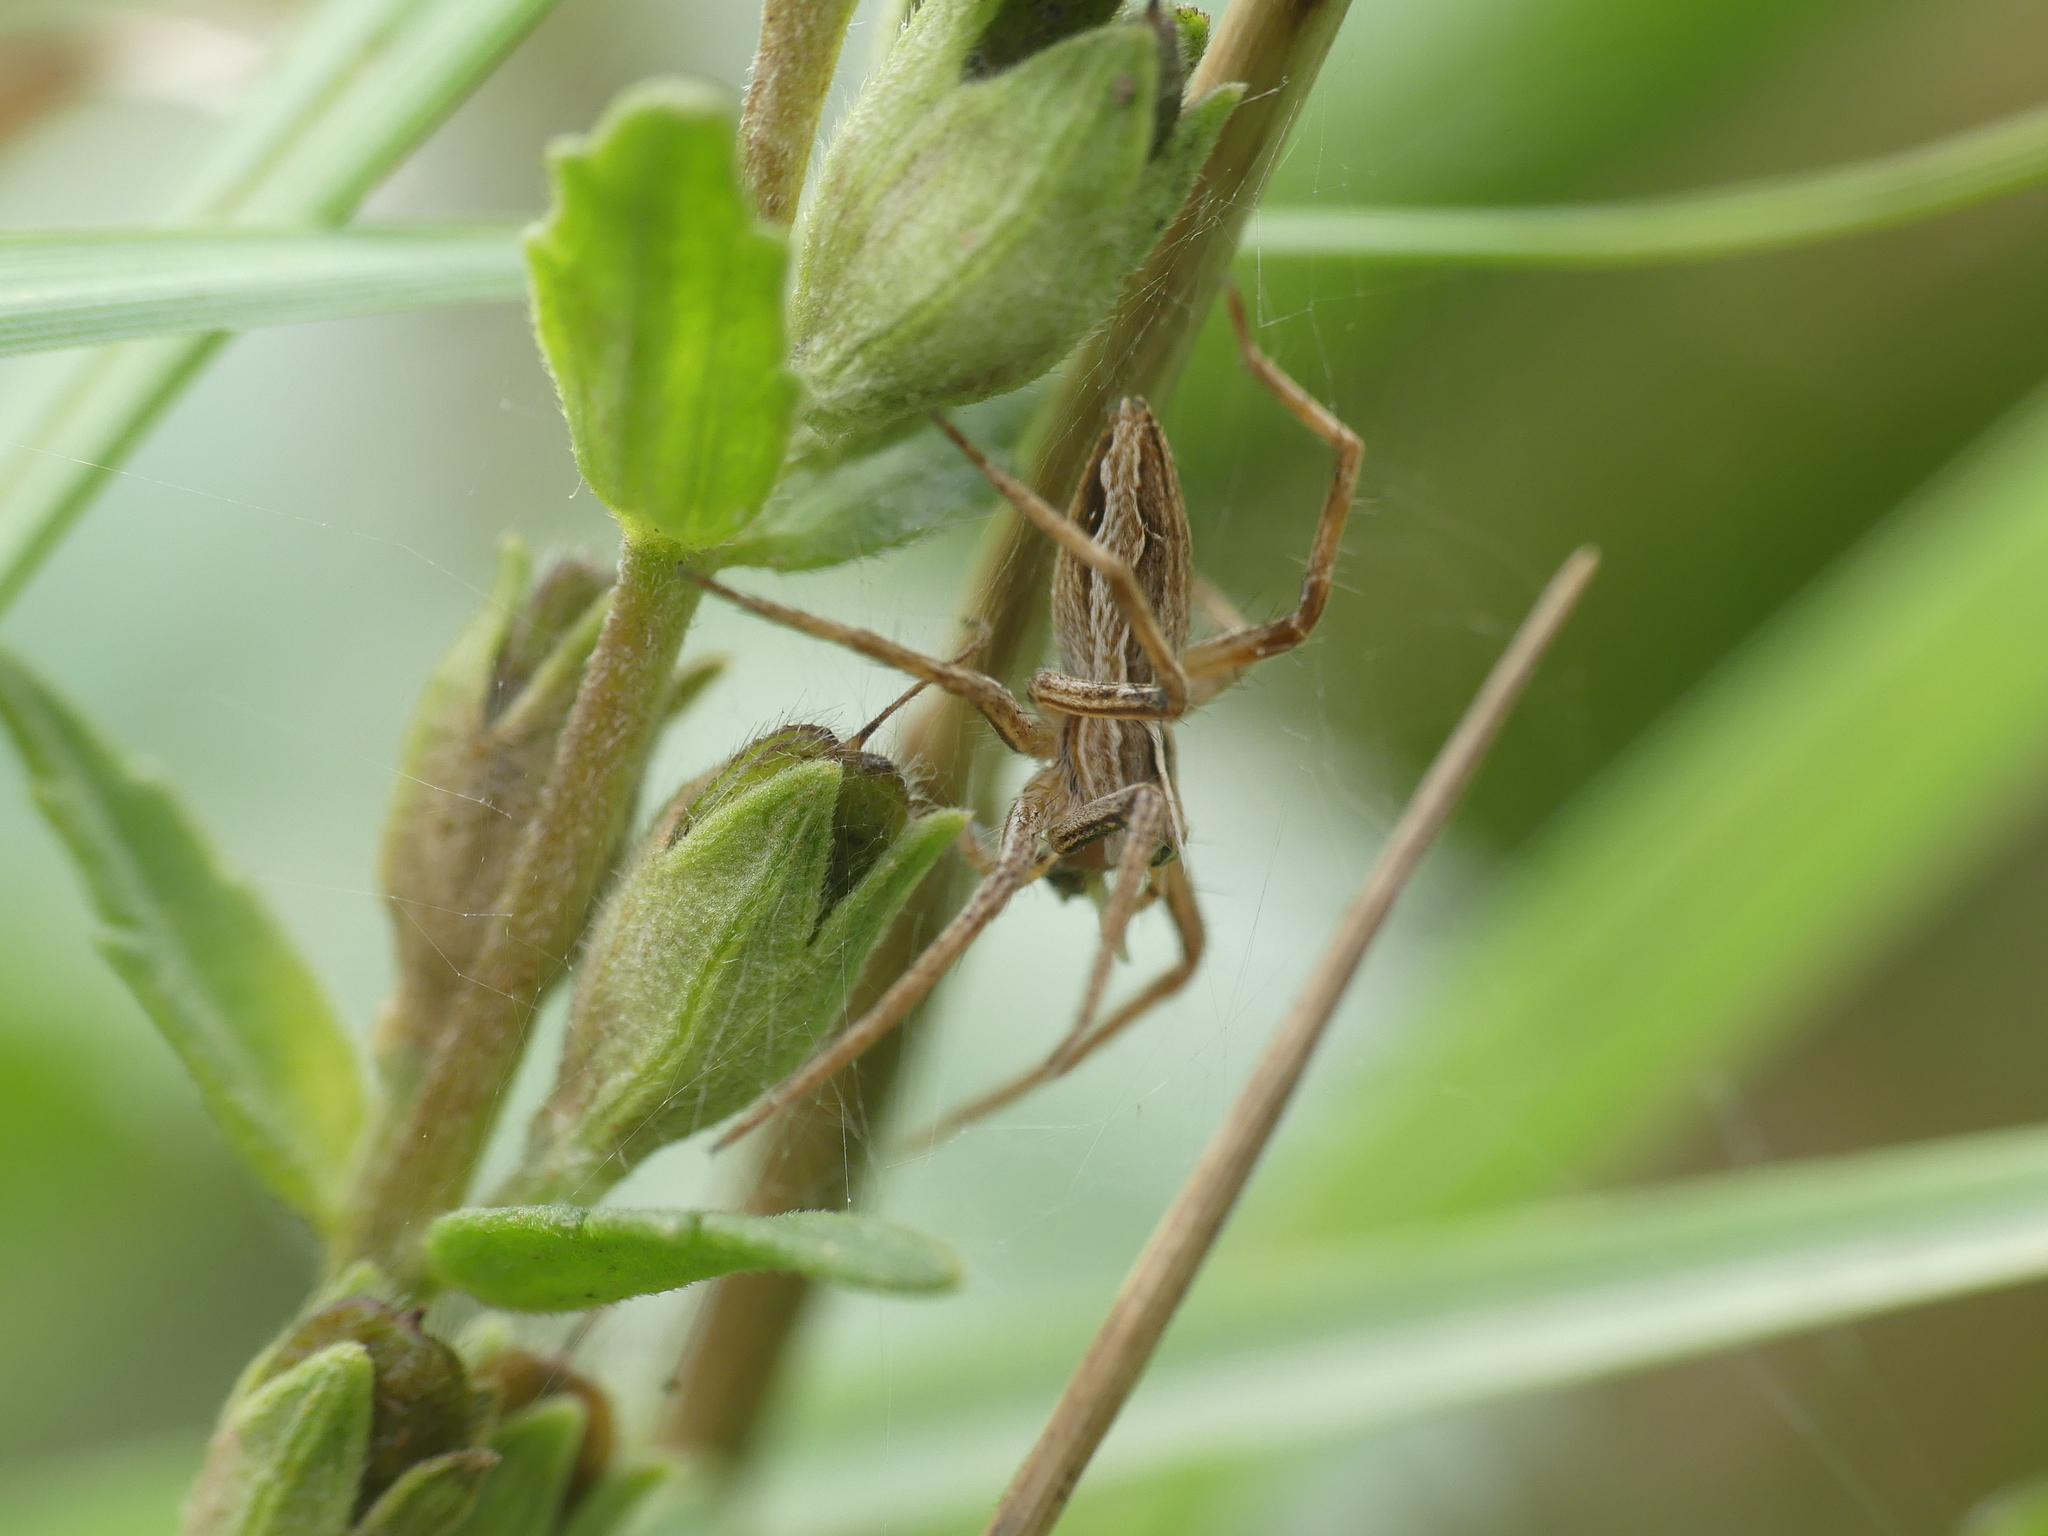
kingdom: Animalia
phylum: Arthropoda
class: Arachnida
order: Araneae
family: Pisauridae
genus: Pisaura
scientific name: Pisaura mirabilis
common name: Tent spider
